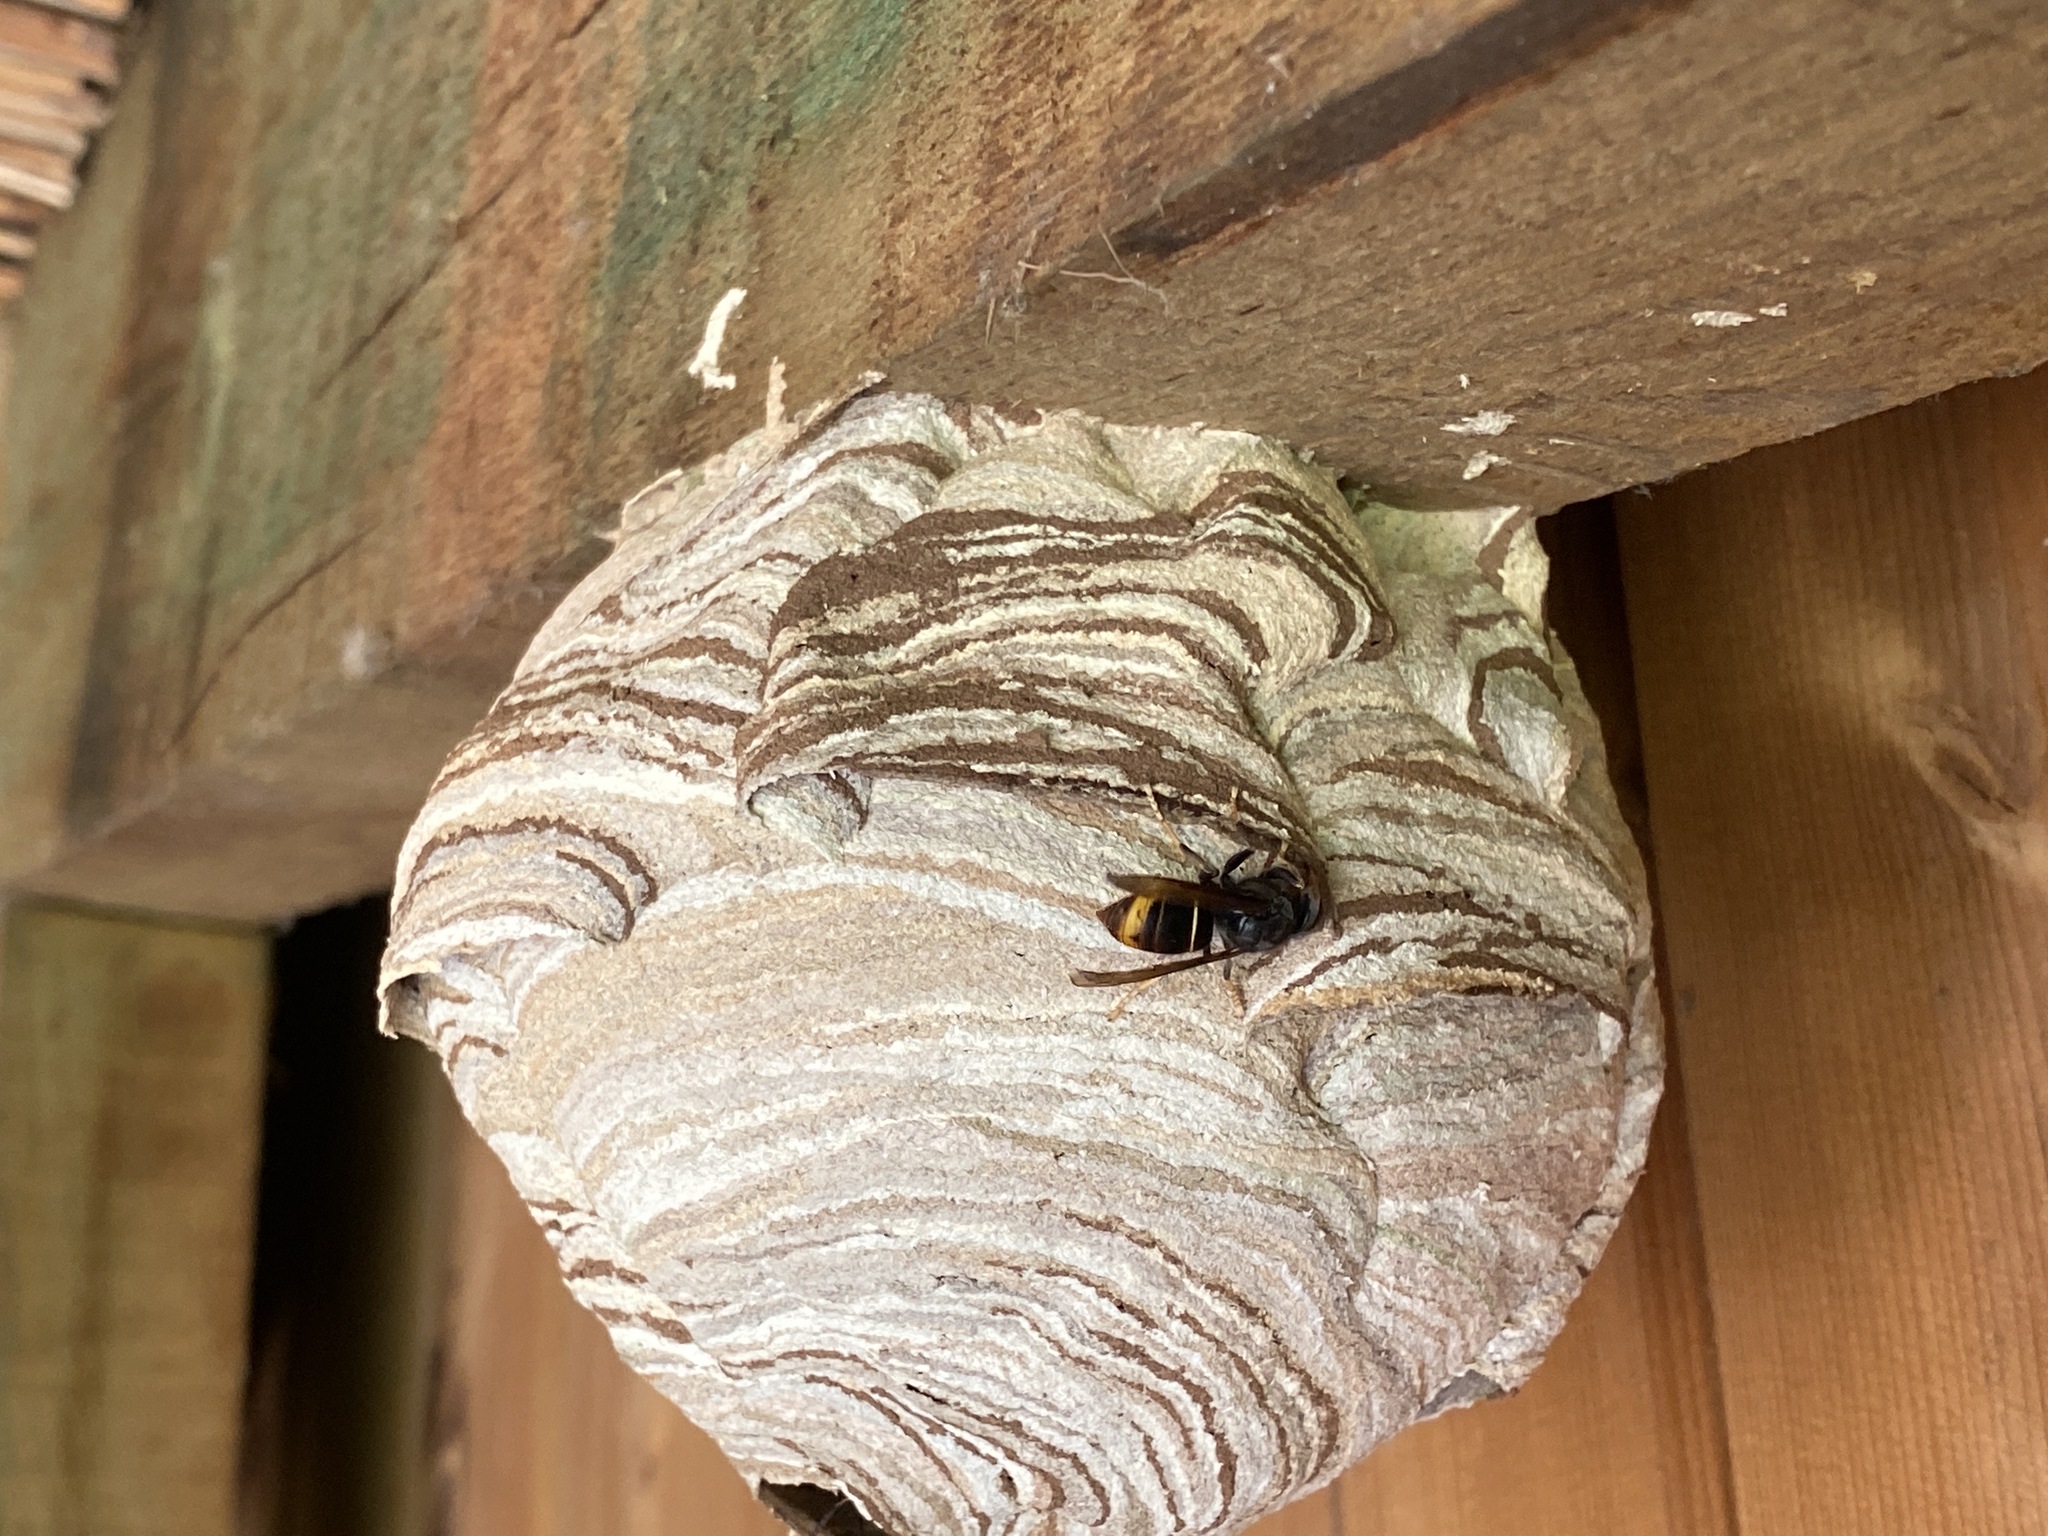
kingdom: Animalia
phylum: Arthropoda
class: Insecta
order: Hymenoptera
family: Vespidae
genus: Vespa
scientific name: Vespa velutina
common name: Asian hornet
